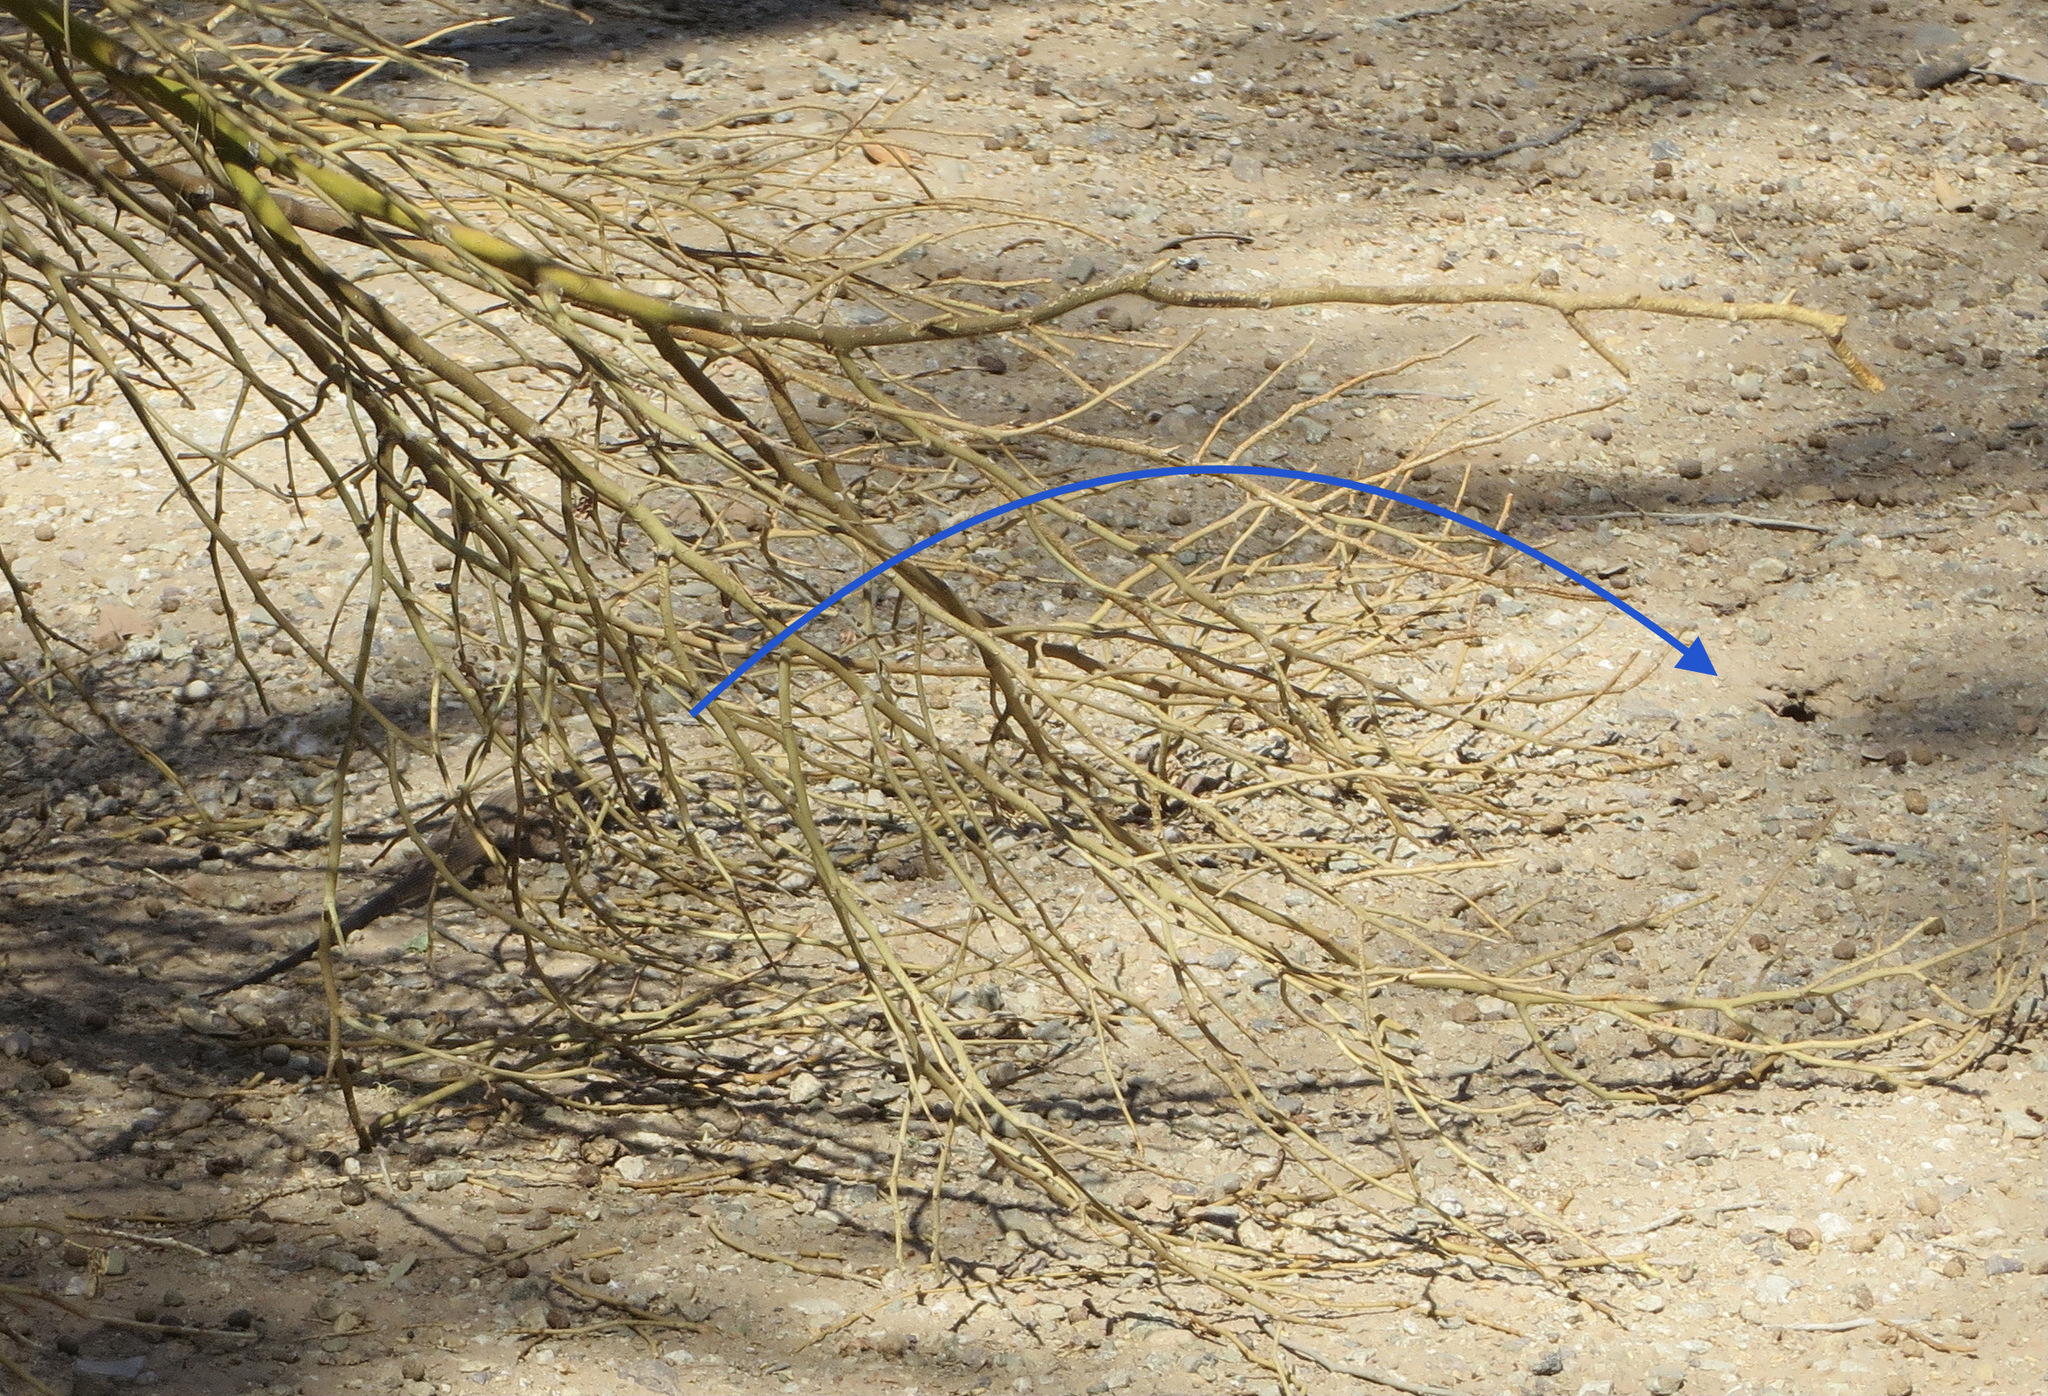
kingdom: Animalia
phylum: Chordata
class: Squamata
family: Teiidae
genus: Aspidoscelis
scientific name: Aspidoscelis tigris
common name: Tiger whiptail
